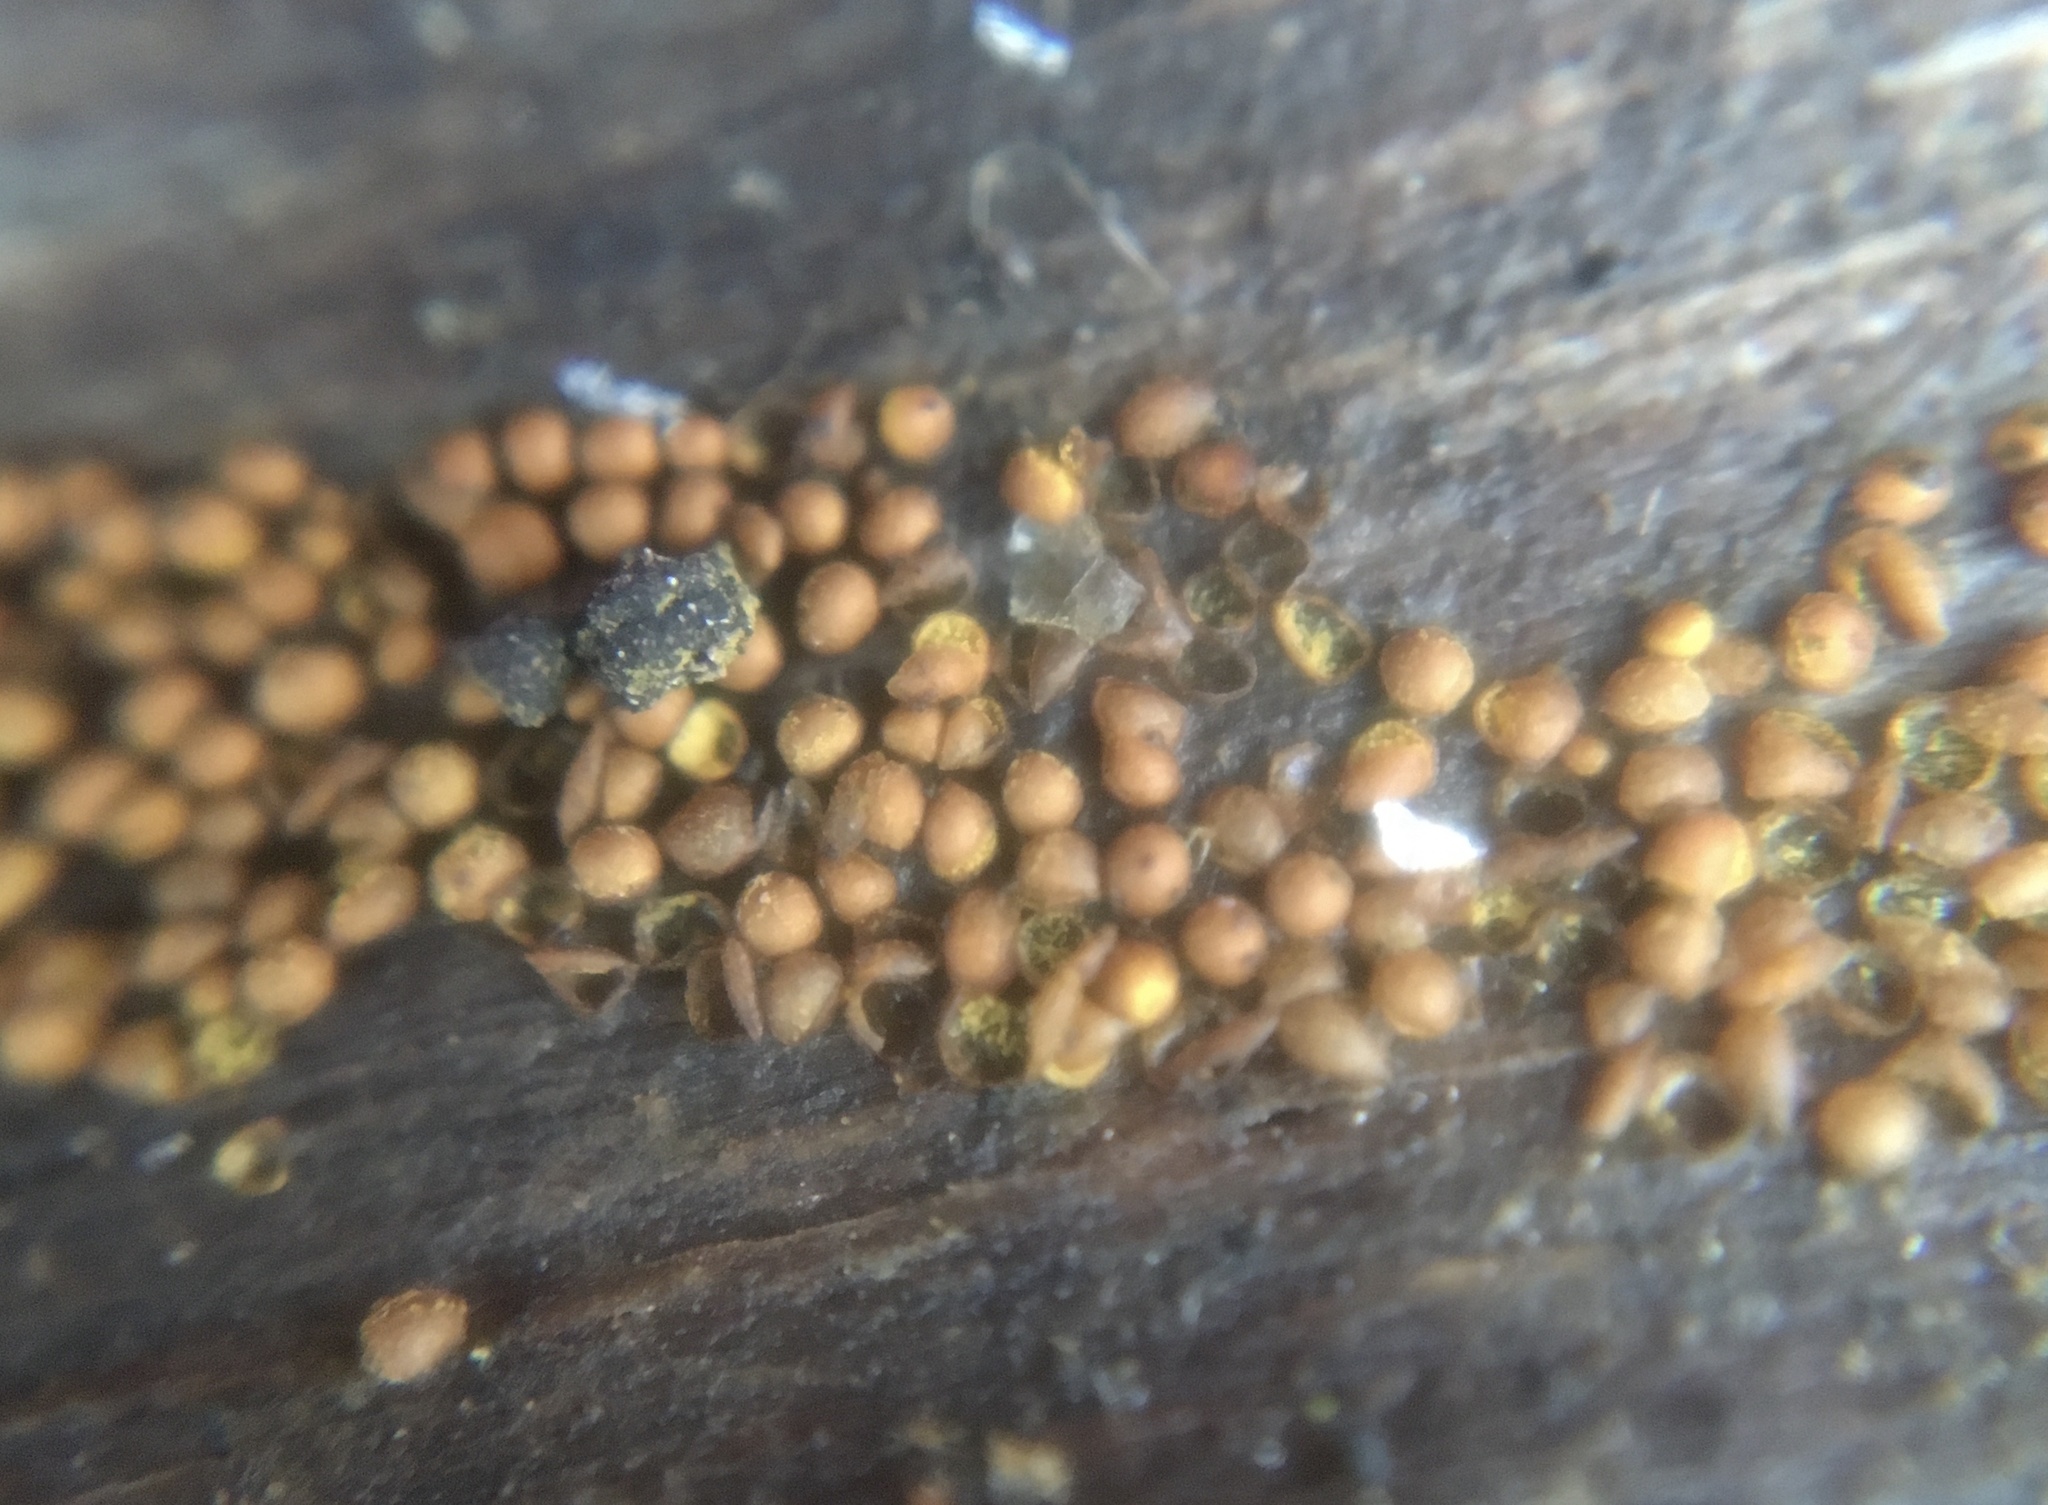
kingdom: Protozoa
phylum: Mycetozoa
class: Myxomycetes
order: Trichiales
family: Trichiaceae
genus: Perichaena
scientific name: Perichaena corticalis
